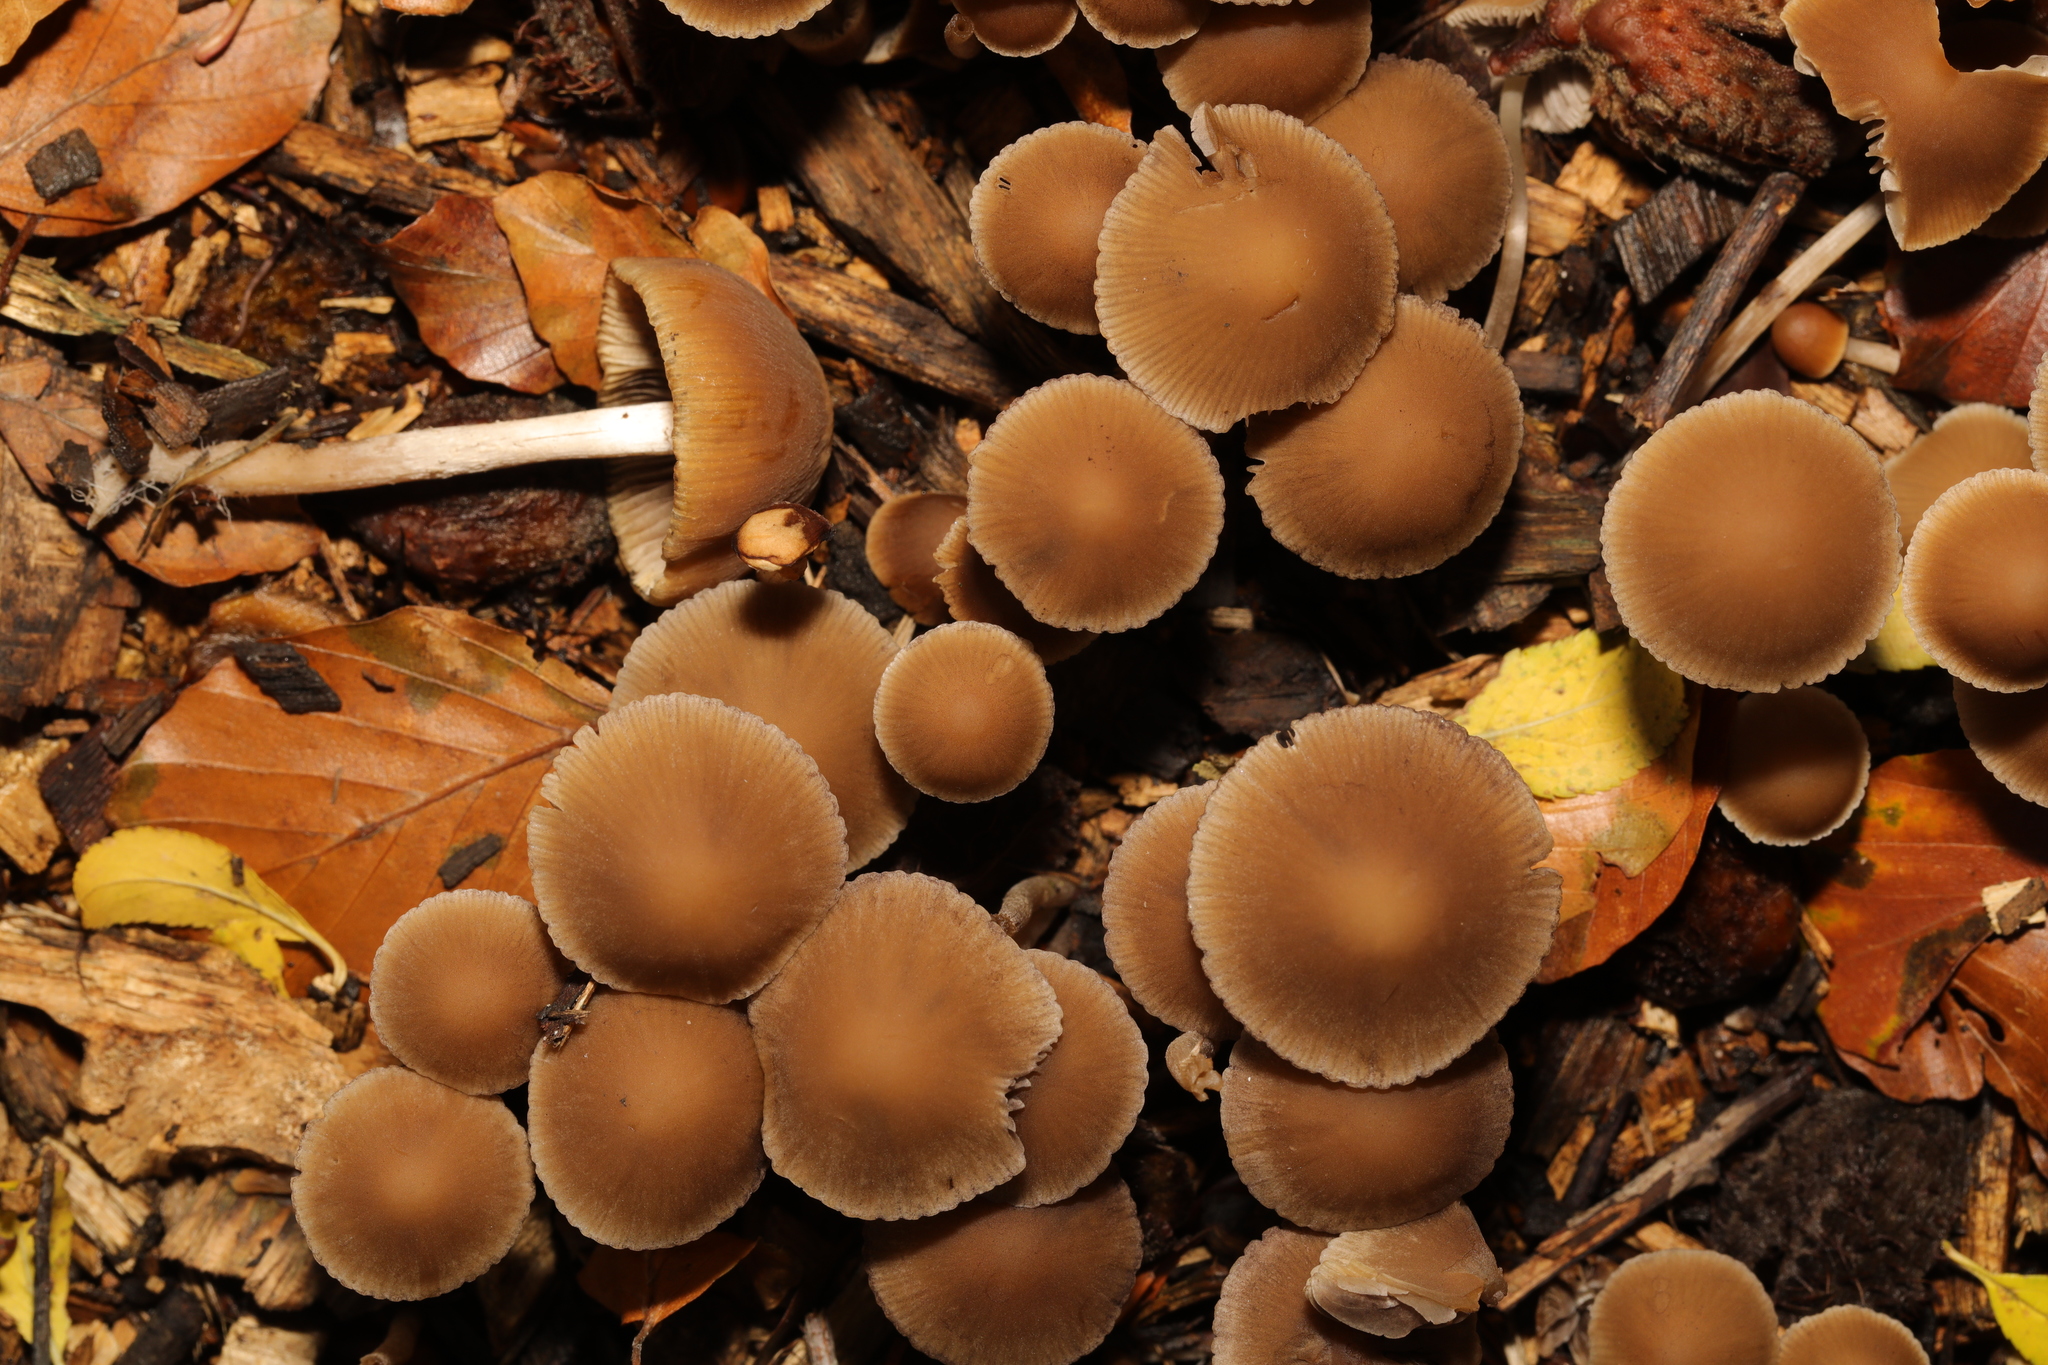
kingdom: Fungi
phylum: Basidiomycota
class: Agaricomycetes
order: Agaricales
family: Psathyrellaceae
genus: Coprinellus
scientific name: Coprinellus disseminatus
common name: Fairies' bonnets
